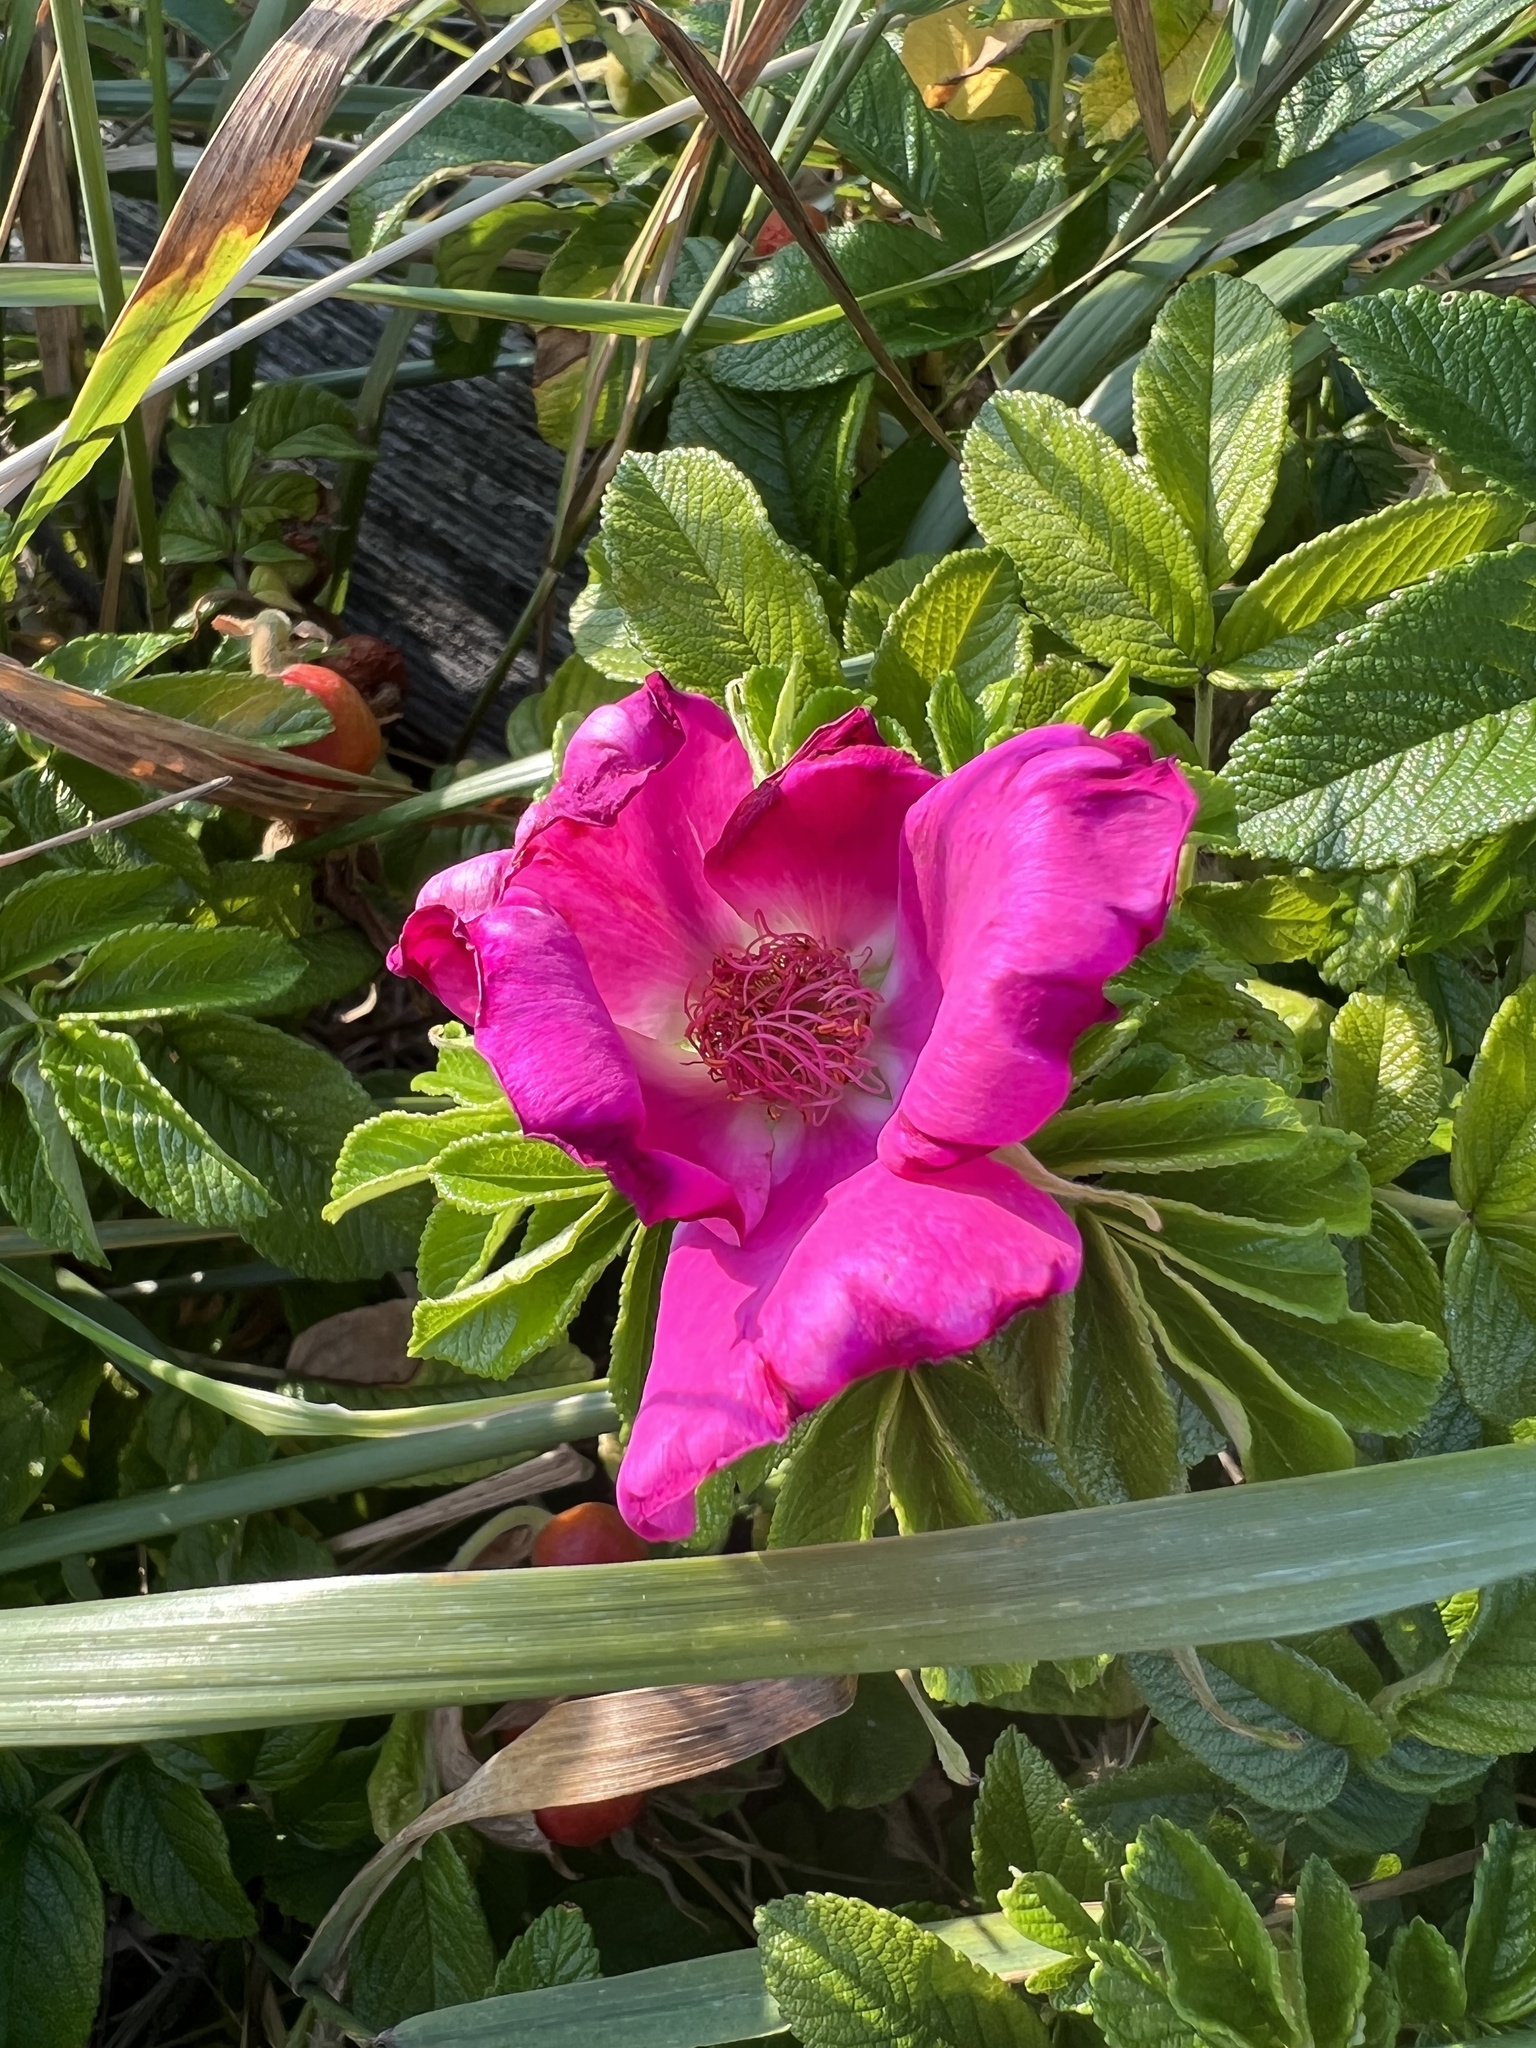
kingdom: Plantae
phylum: Tracheophyta
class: Magnoliopsida
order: Rosales
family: Rosaceae
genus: Rosa
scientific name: Rosa rugosa
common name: Japanese rose
